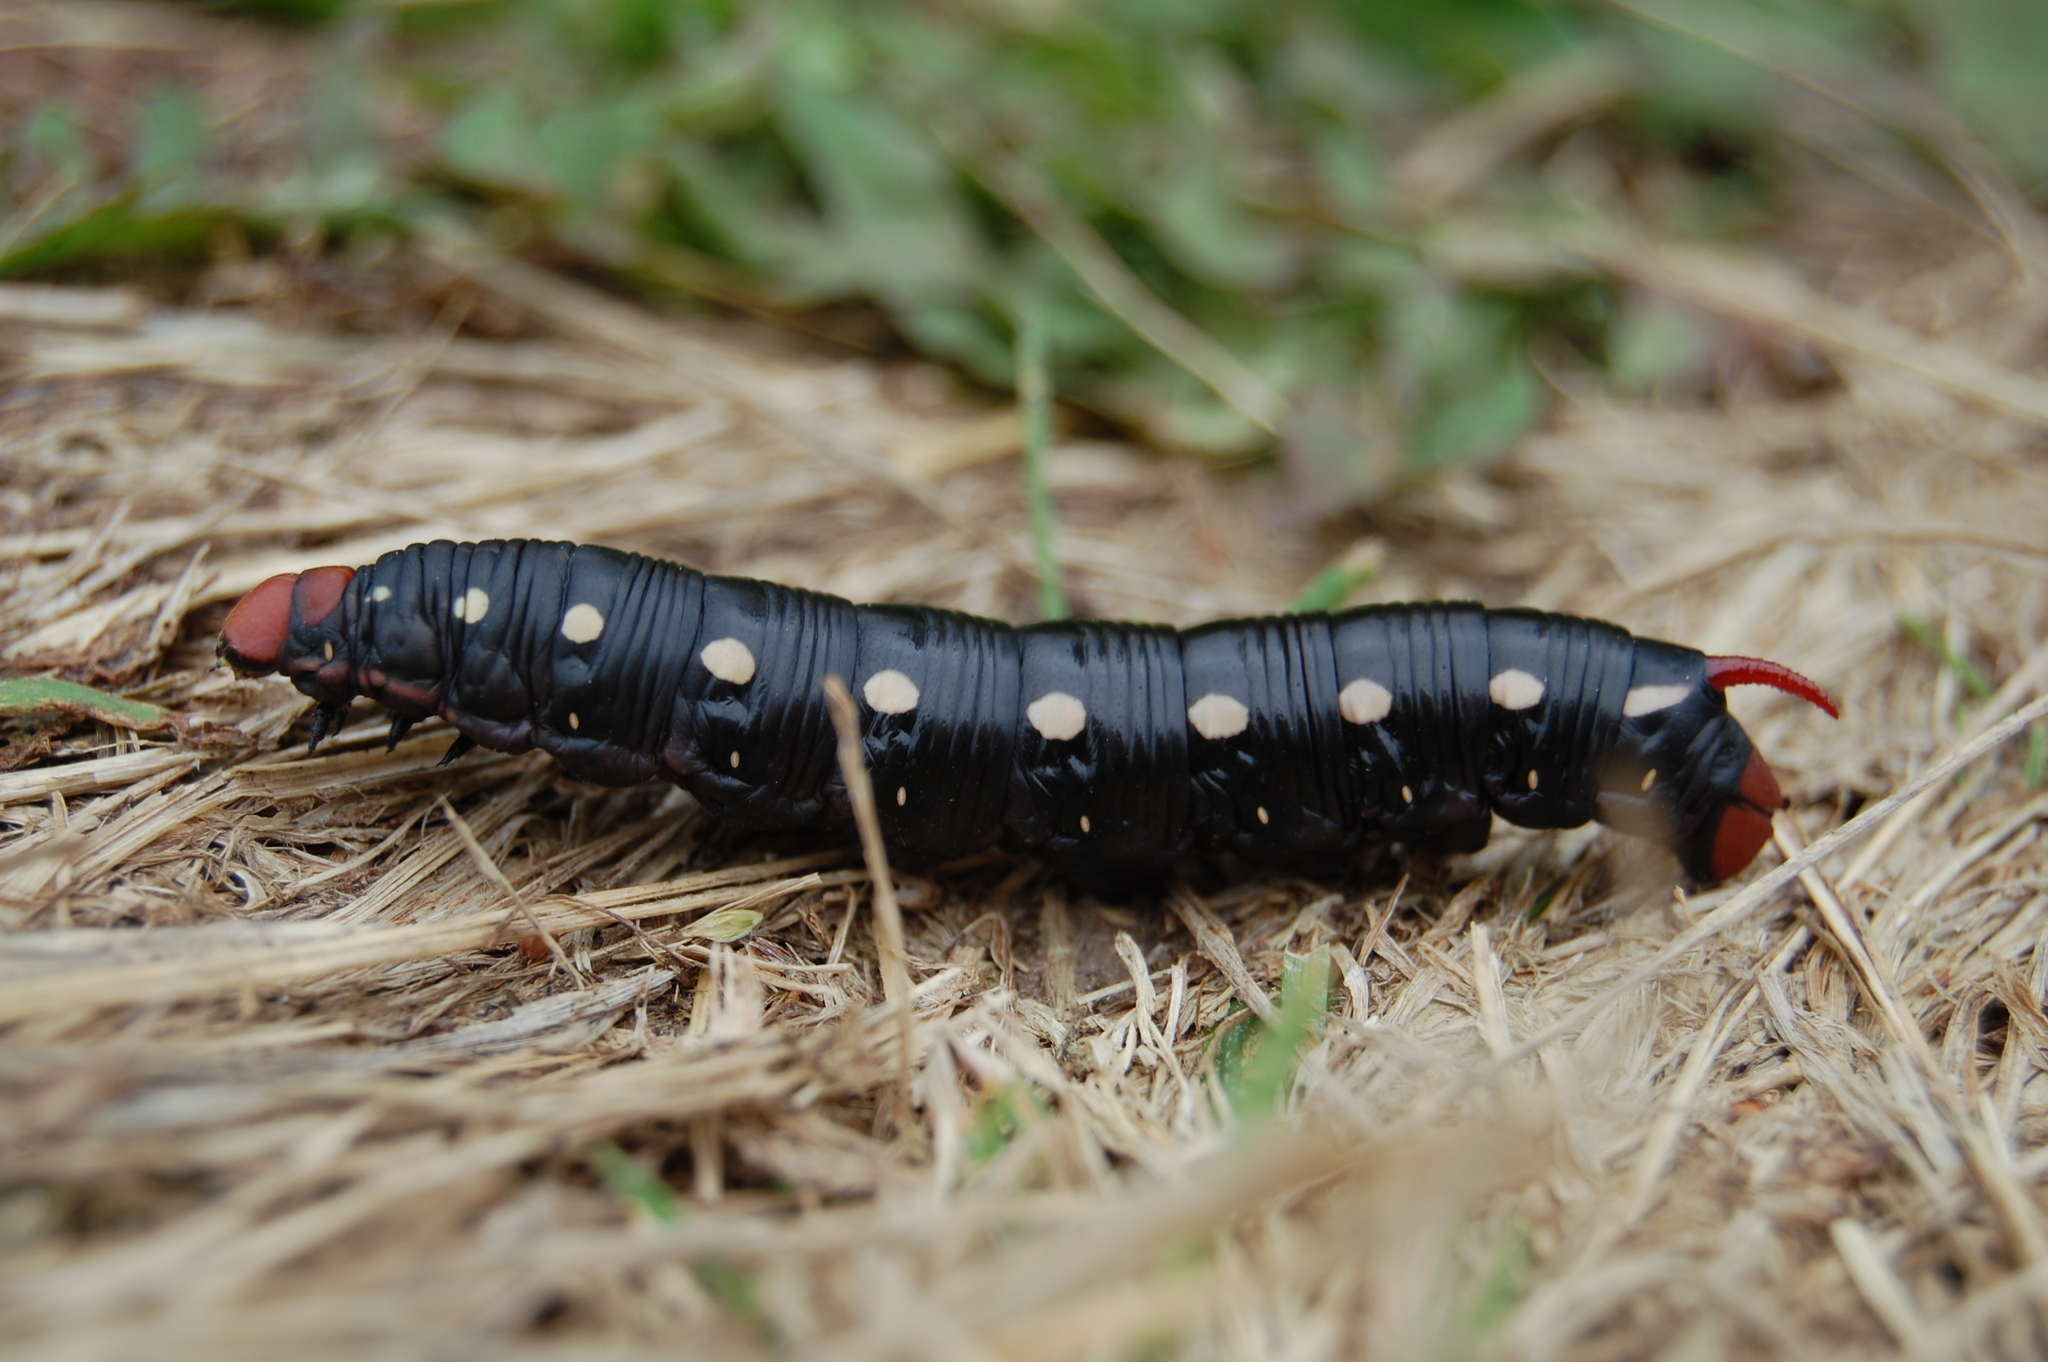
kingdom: Animalia
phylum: Arthropoda
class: Insecta
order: Lepidoptera
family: Sphingidae
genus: Hyles
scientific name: Hyles gallii
